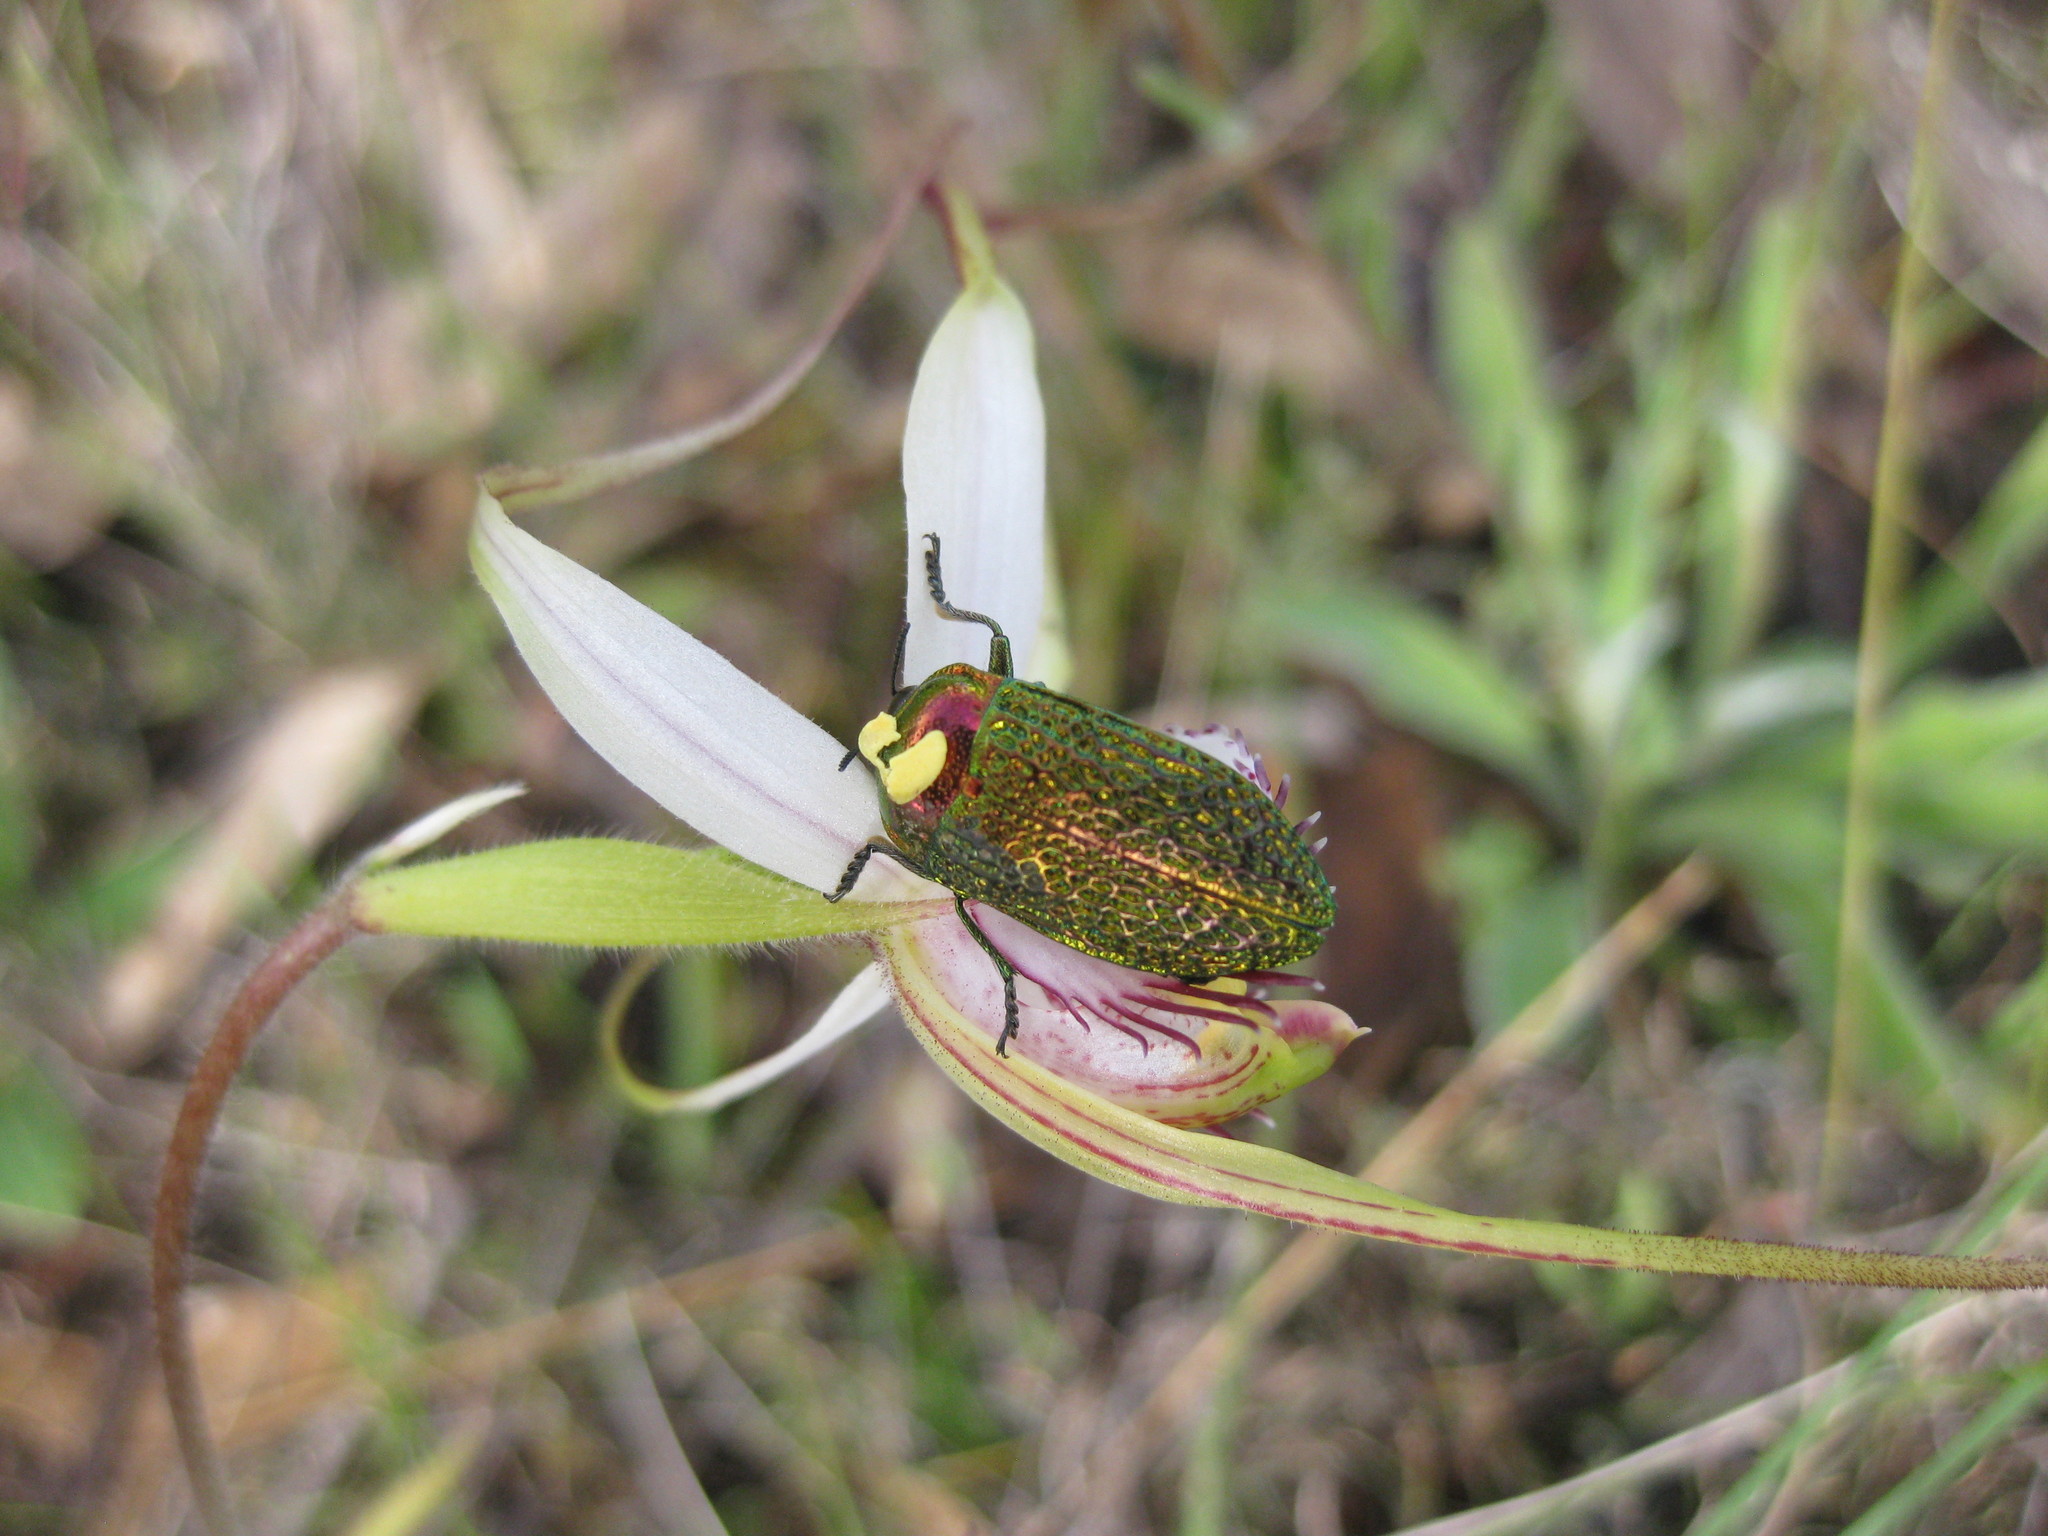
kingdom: Animalia
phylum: Arthropoda
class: Insecta
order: Coleoptera
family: Buprestidae
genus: Stigmodera
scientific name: Stigmodera gratiosa
